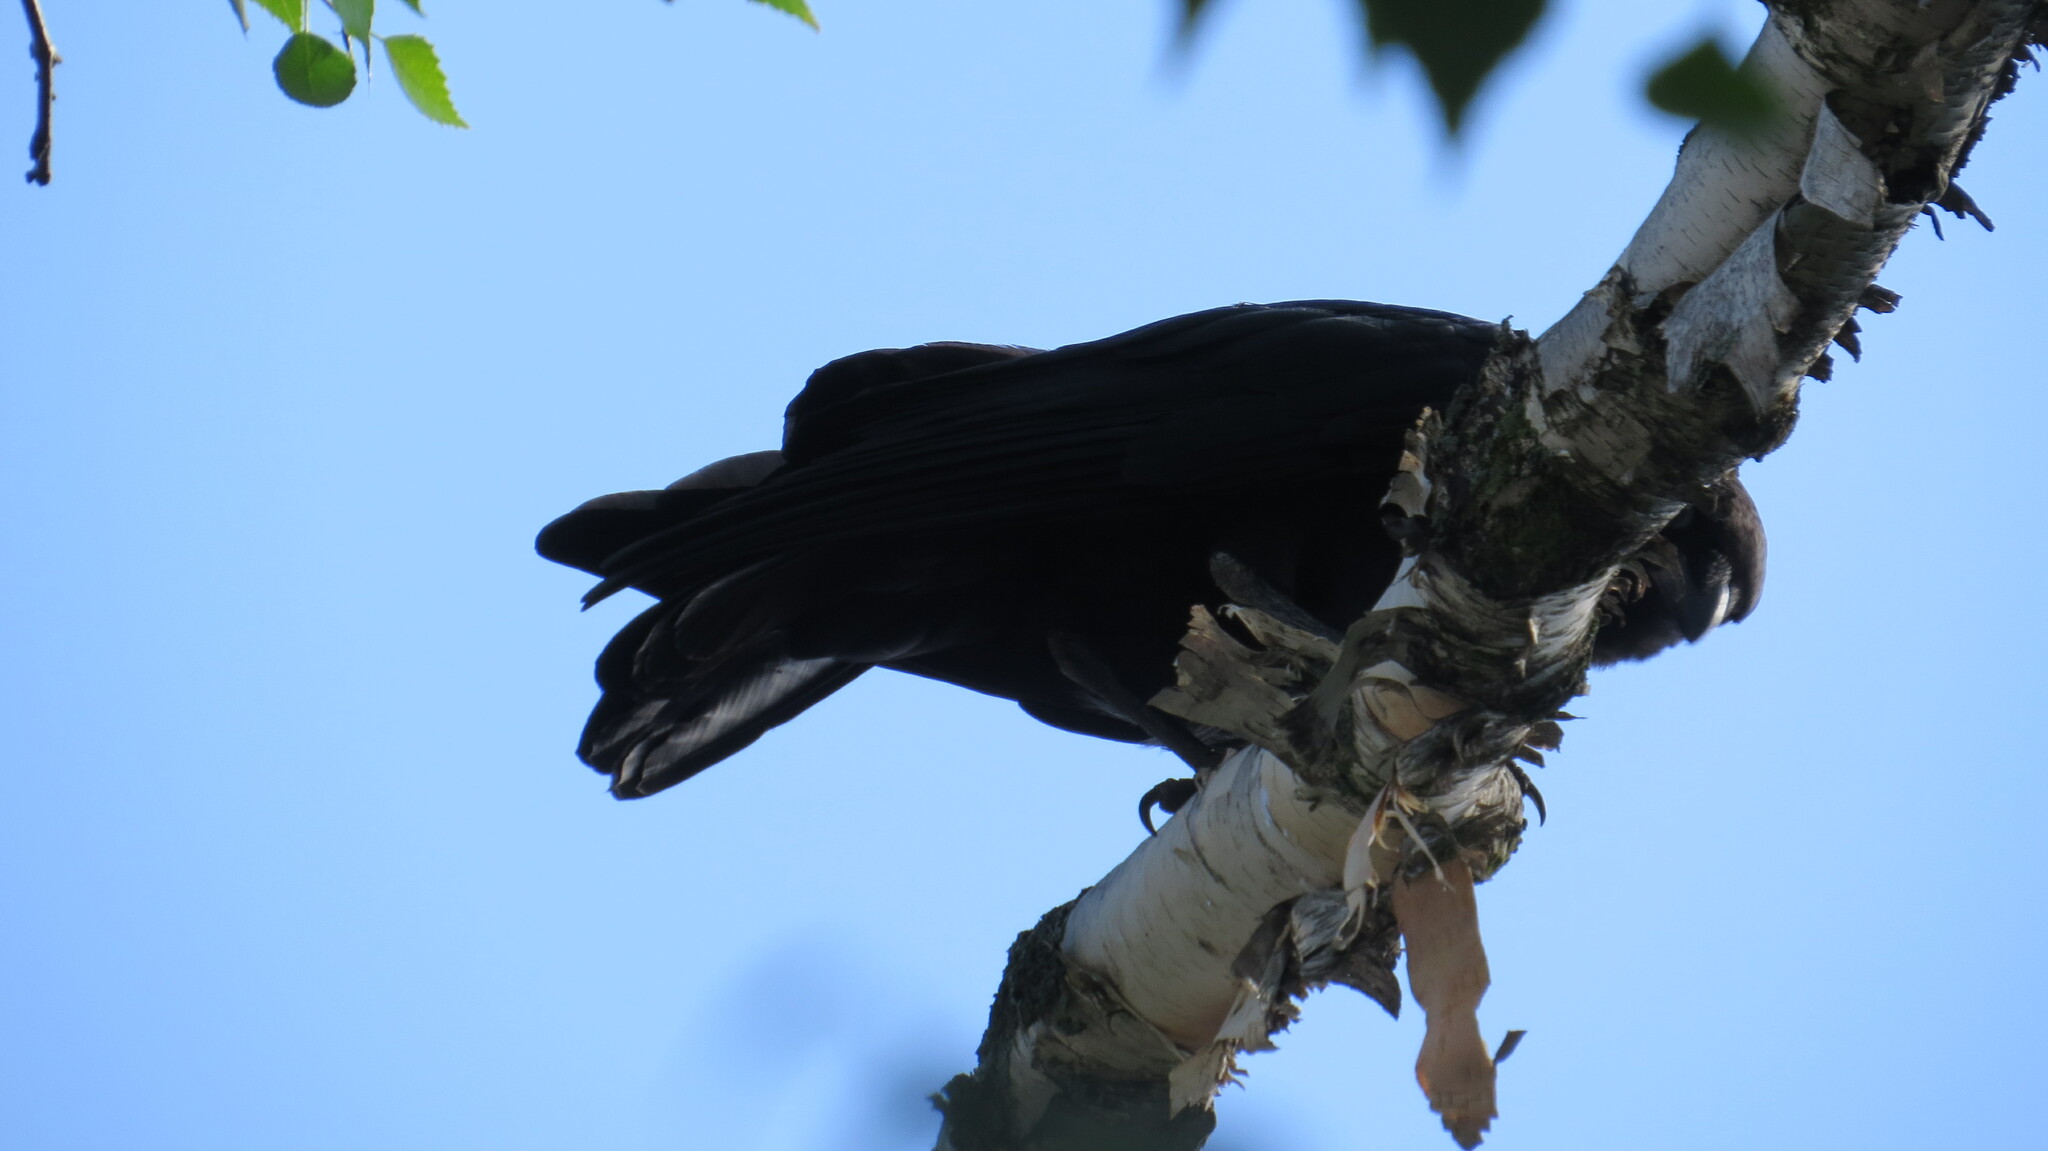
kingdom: Animalia
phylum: Chordata
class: Aves
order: Passeriformes
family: Corvidae
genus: Corvus
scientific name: Corvus brachyrhynchos
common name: American crow
